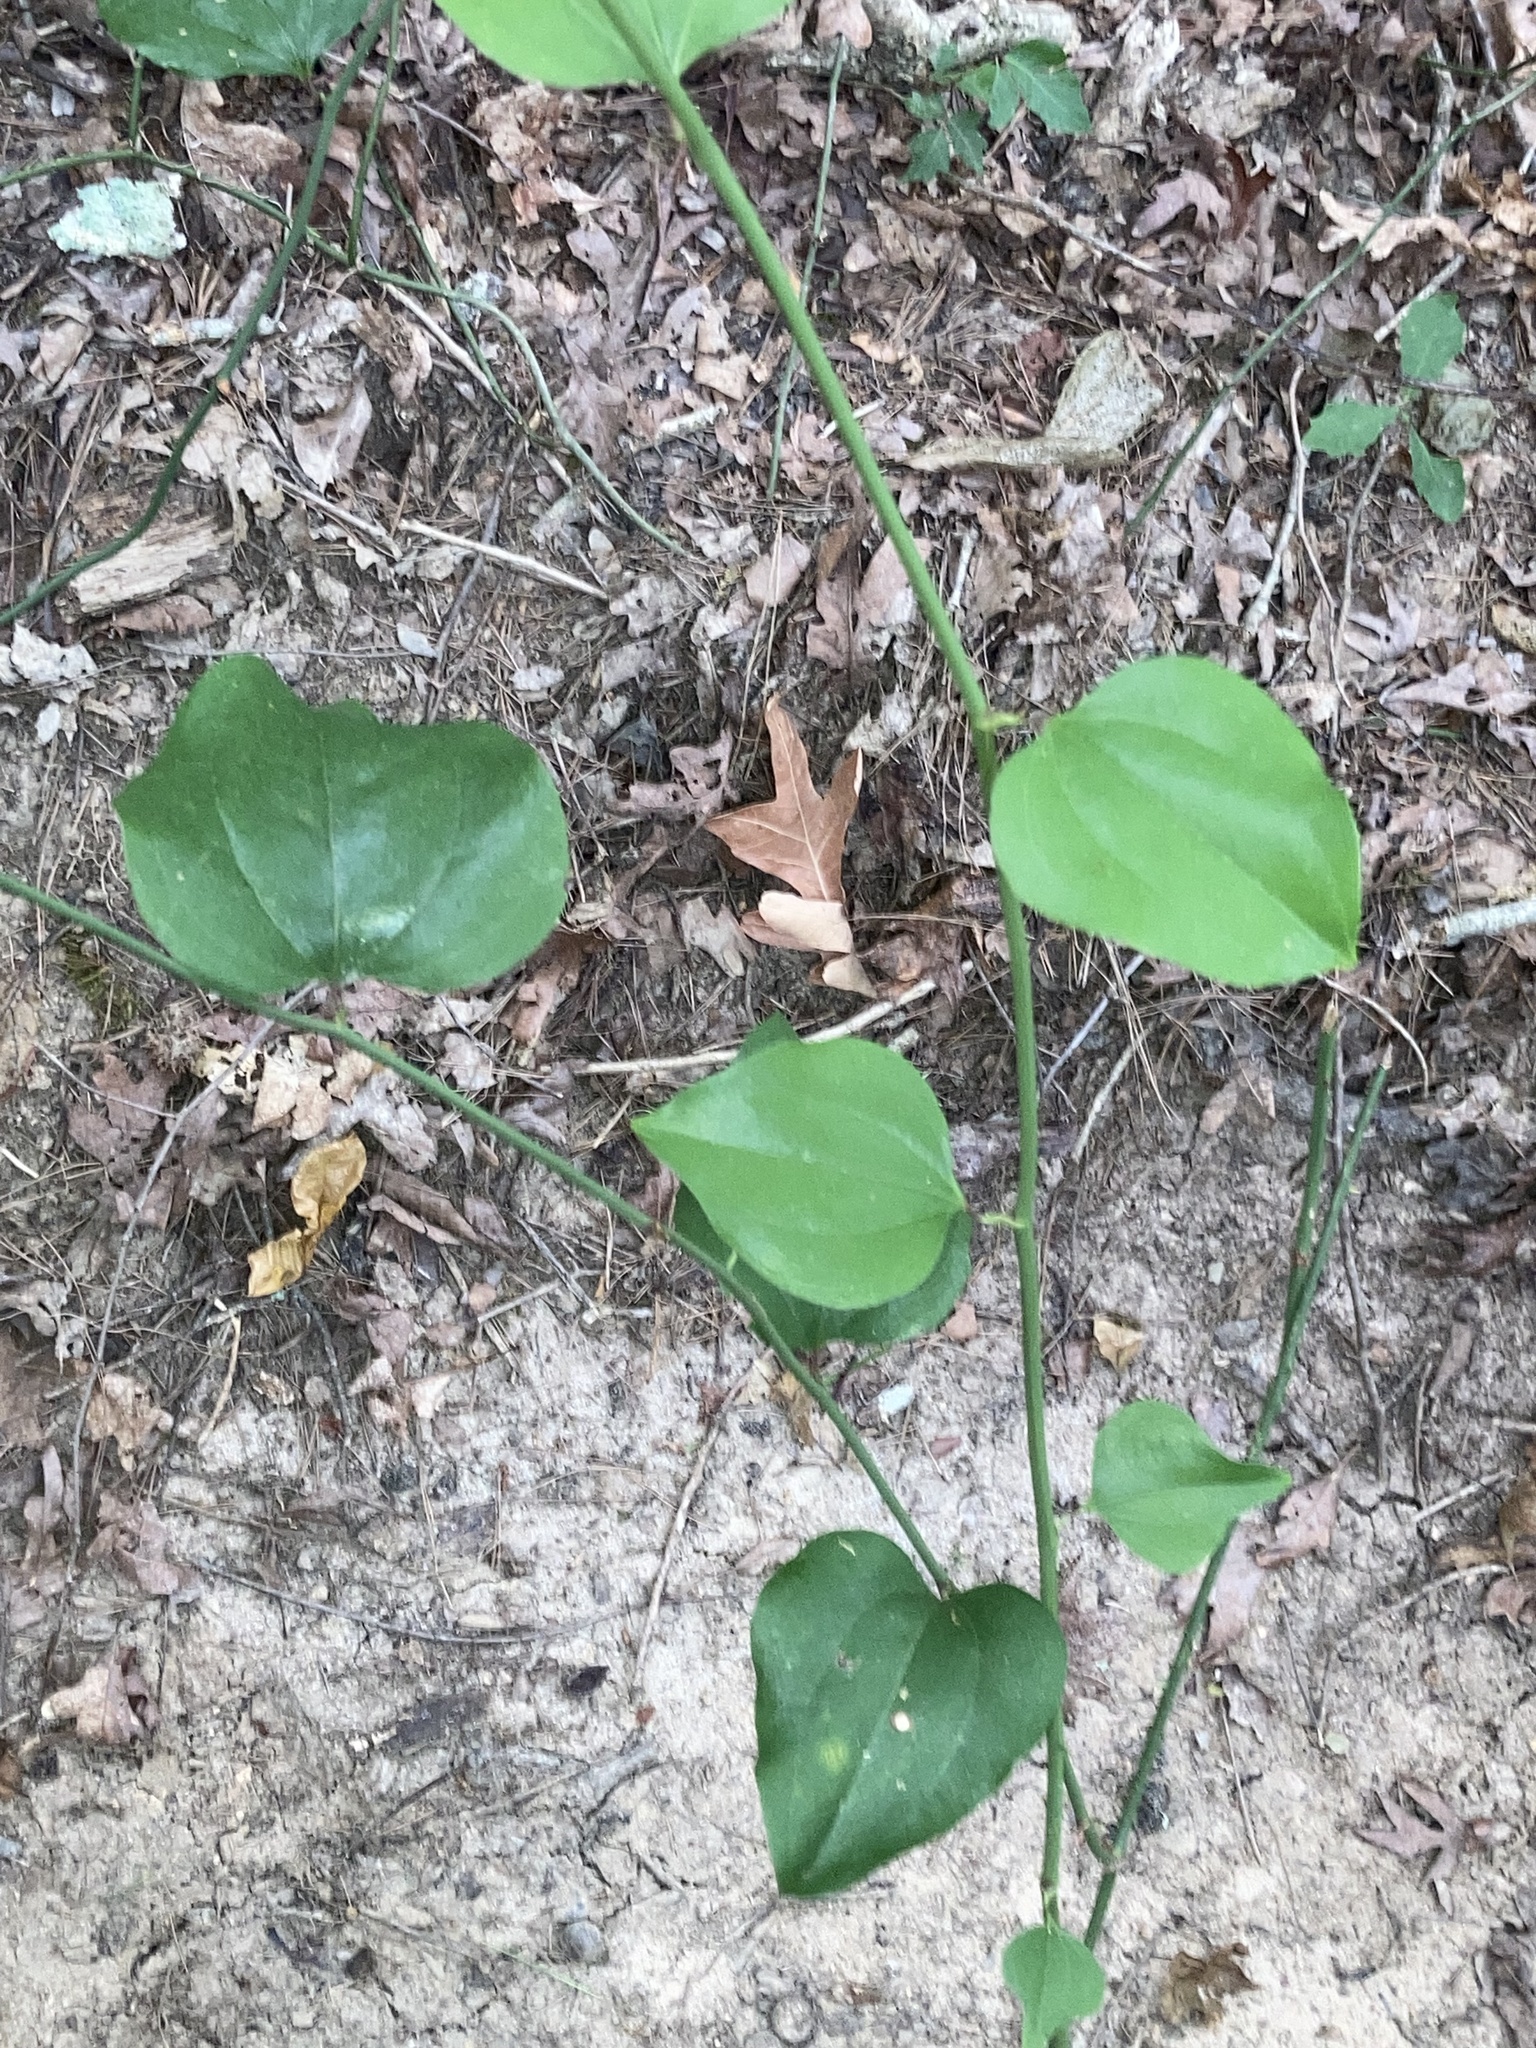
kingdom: Plantae
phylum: Tracheophyta
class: Liliopsida
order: Liliales
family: Smilacaceae
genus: Smilax
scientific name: Smilax rotundifolia
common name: Bullbriar
